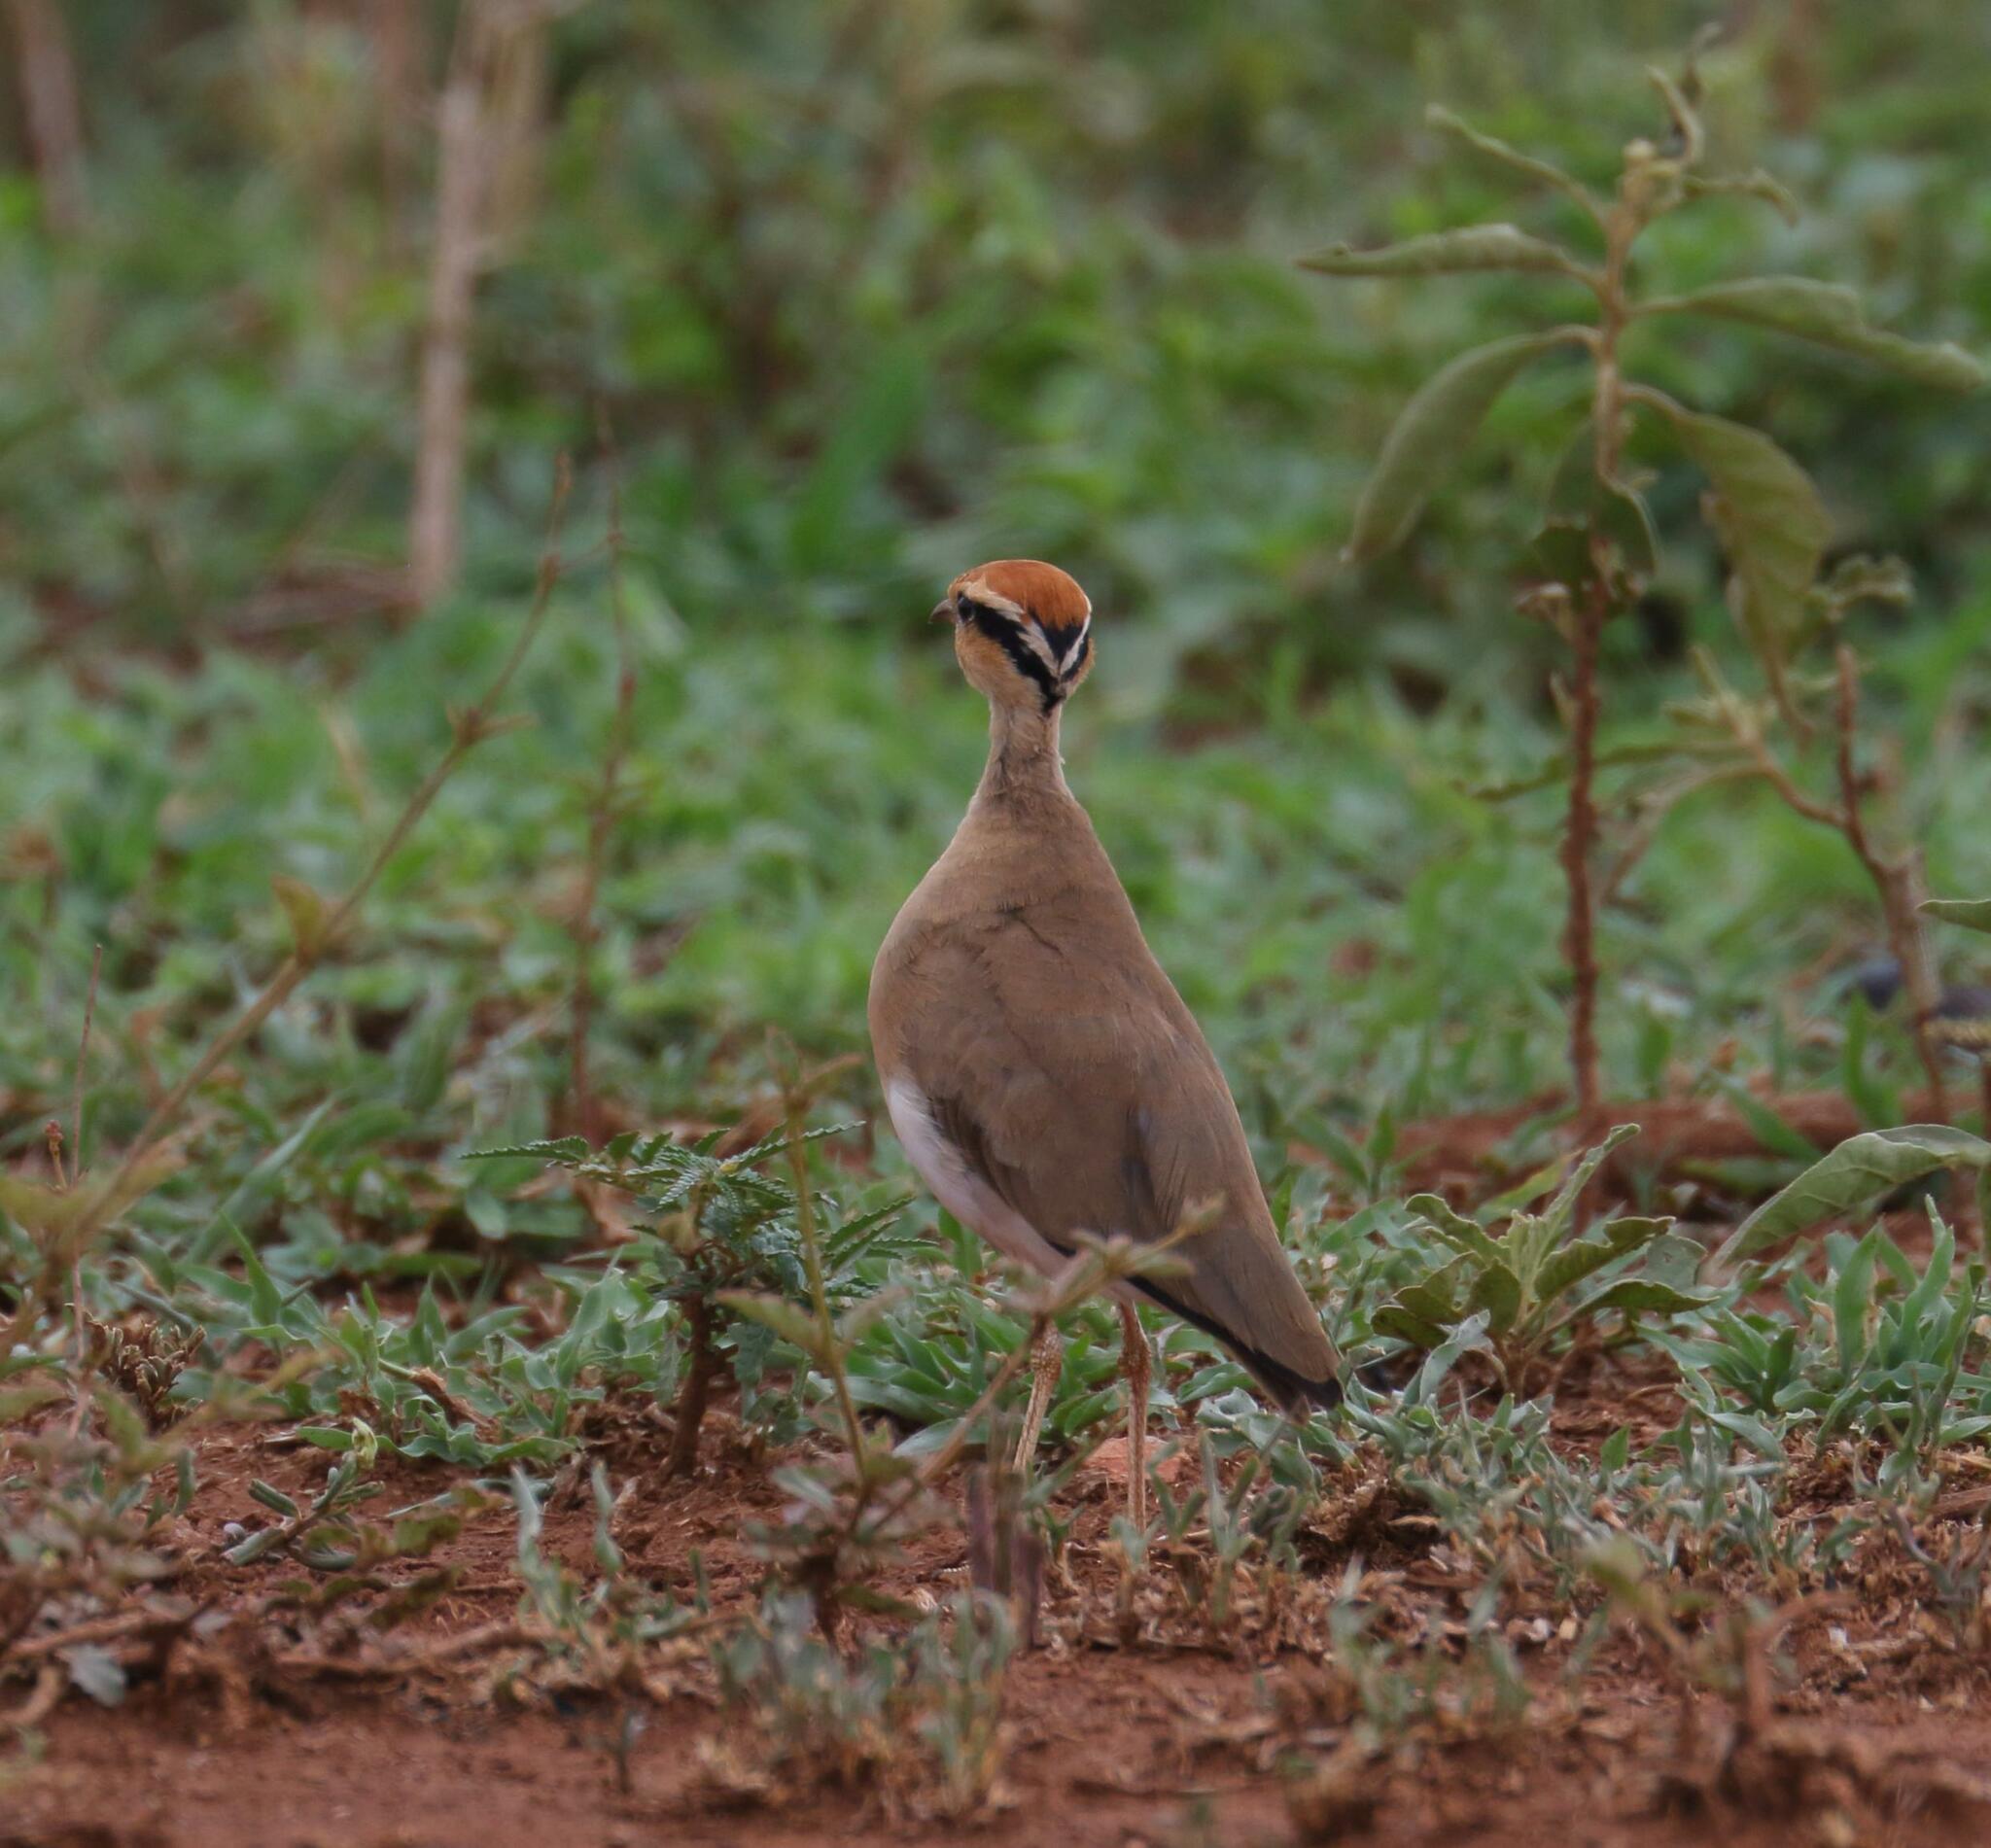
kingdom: Animalia
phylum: Chordata
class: Aves
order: Charadriiformes
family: Glareolidae
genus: Cursorius
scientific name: Cursorius temminckii
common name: Temminck's courser
